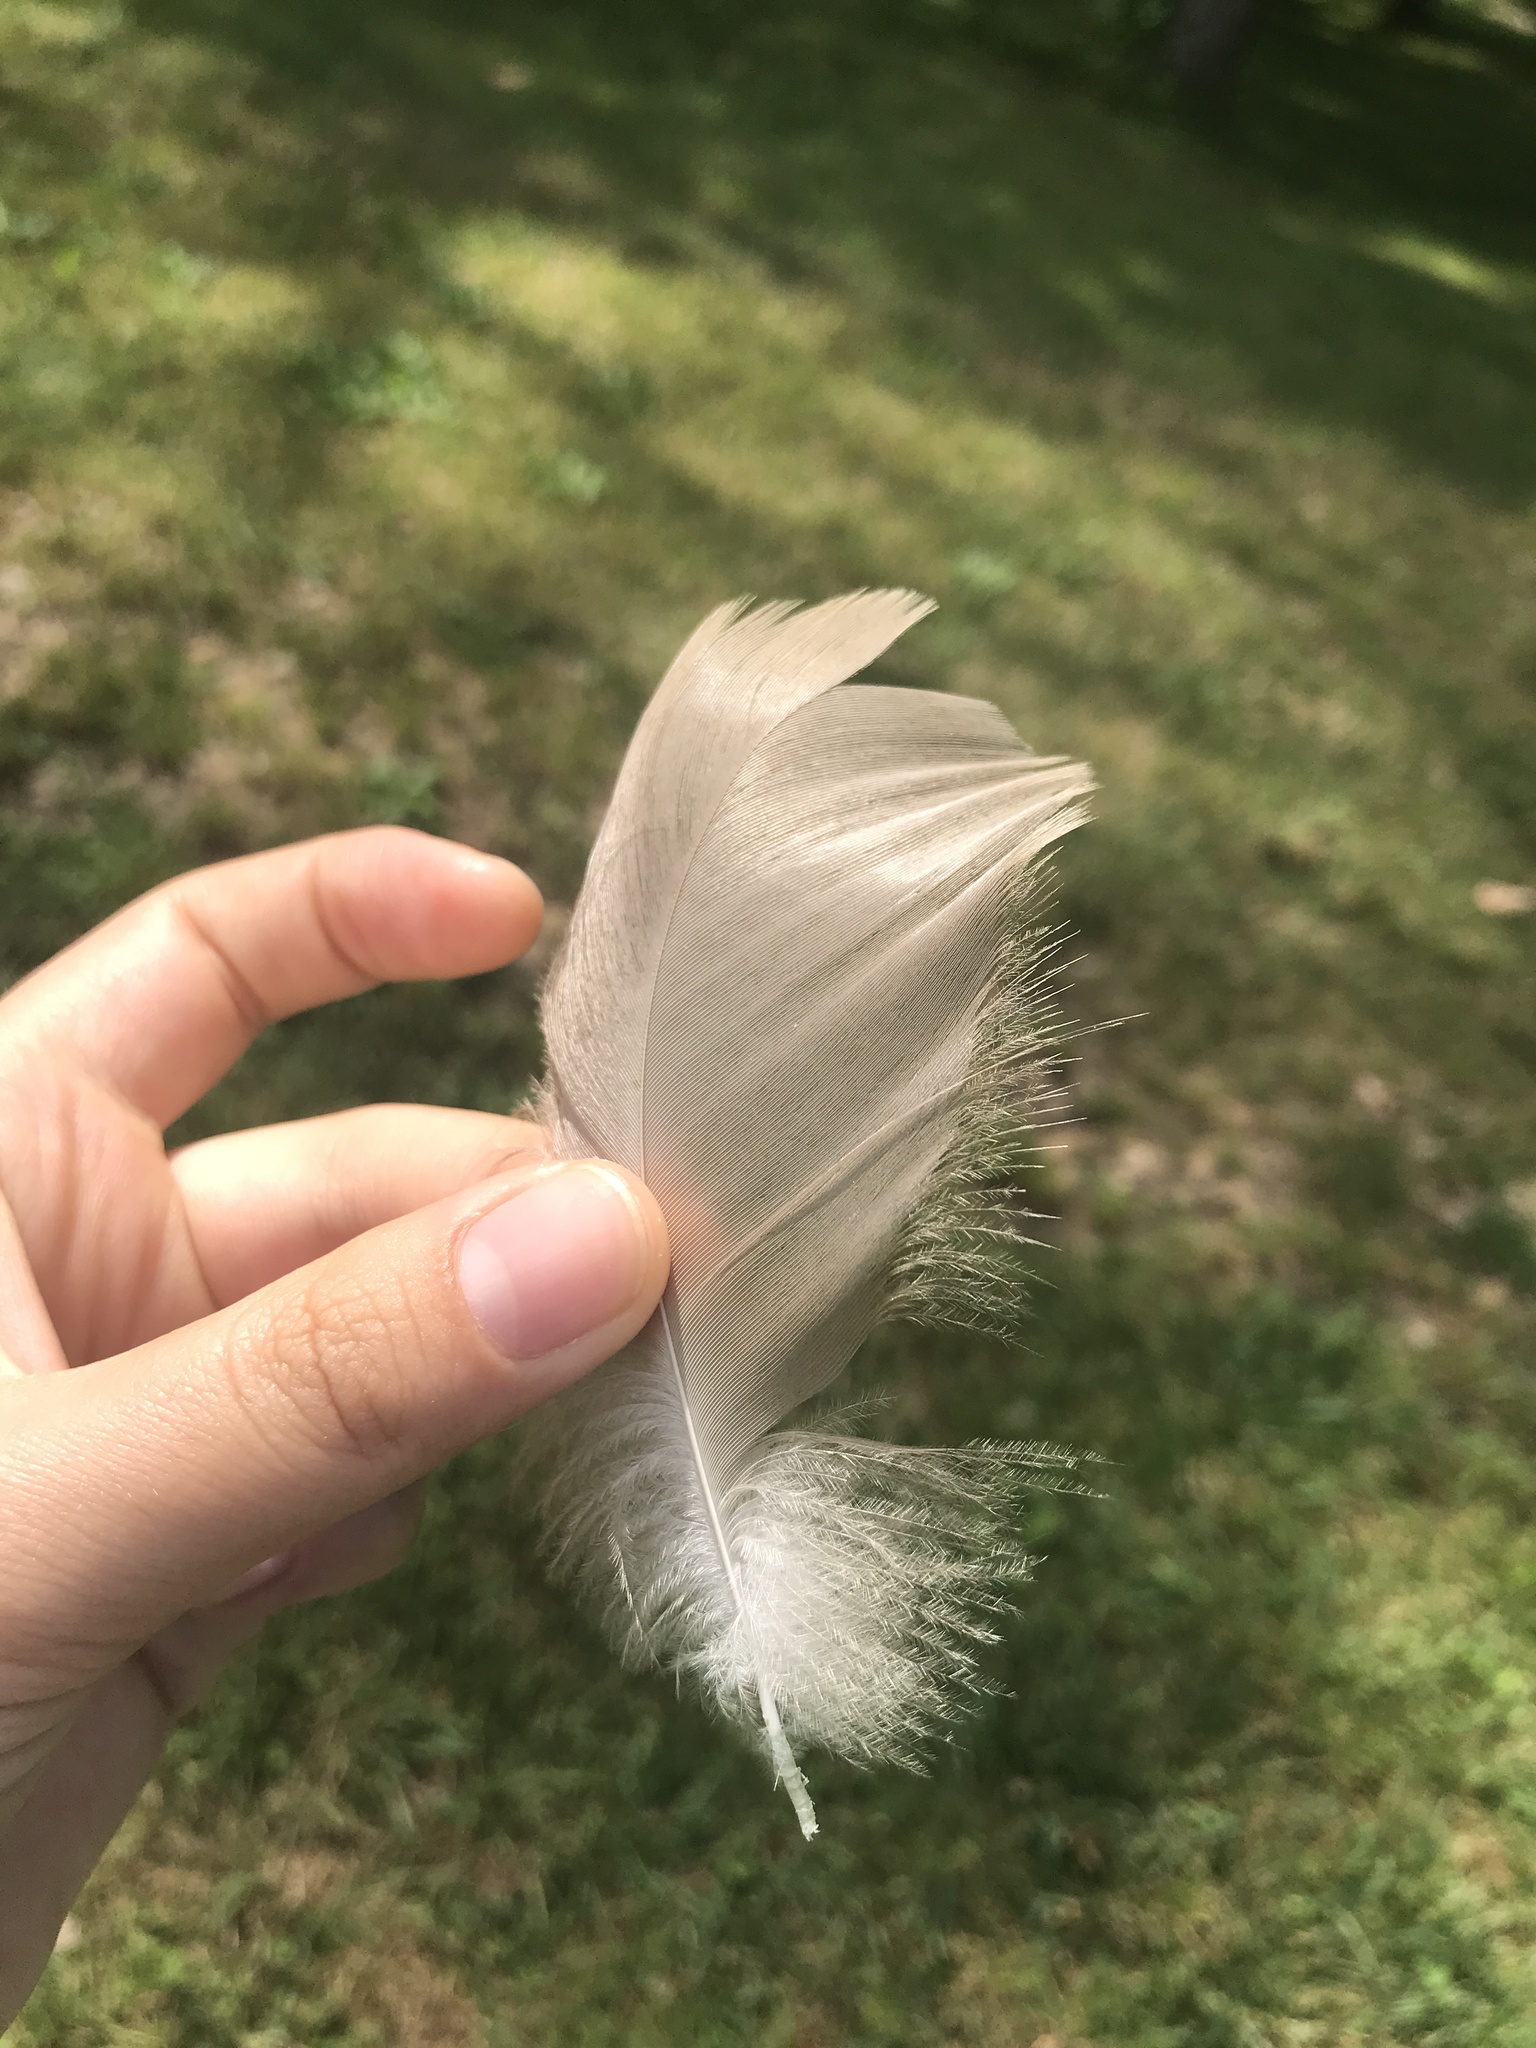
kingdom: Animalia
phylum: Chordata
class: Aves
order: Anseriformes
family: Anatidae
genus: Branta
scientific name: Branta canadensis
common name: Canada goose
